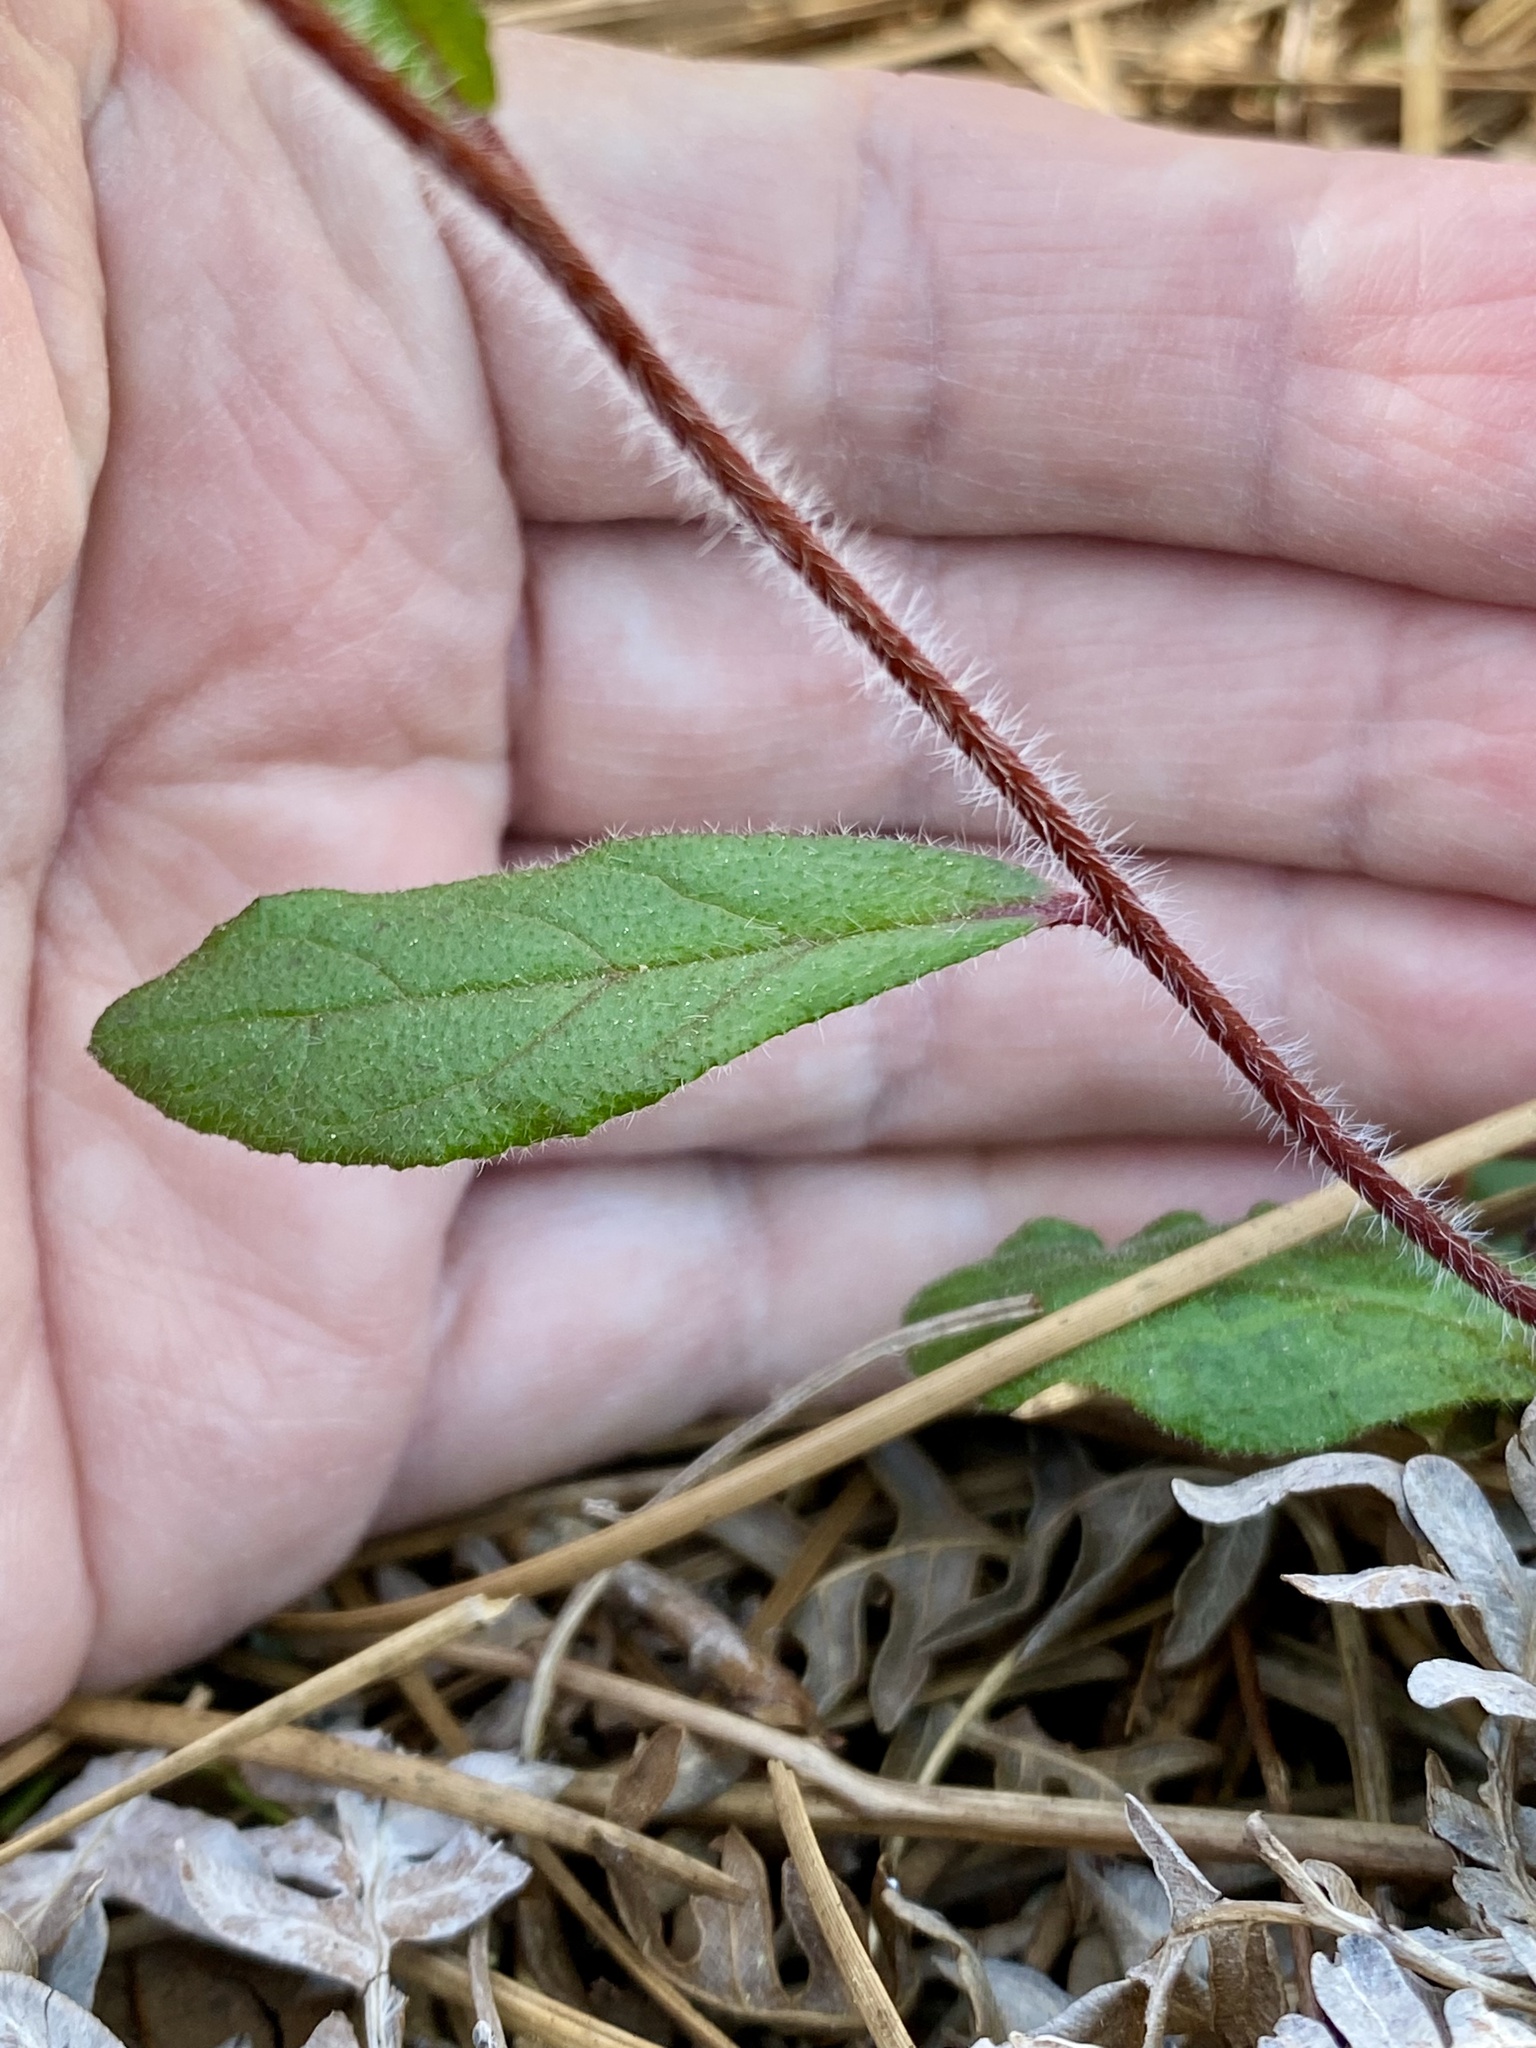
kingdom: Plantae
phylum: Tracheophyta
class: Magnoliopsida
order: Malvales
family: Cistaceae
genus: Crocanthemum
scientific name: Crocanthemum carolinianum
